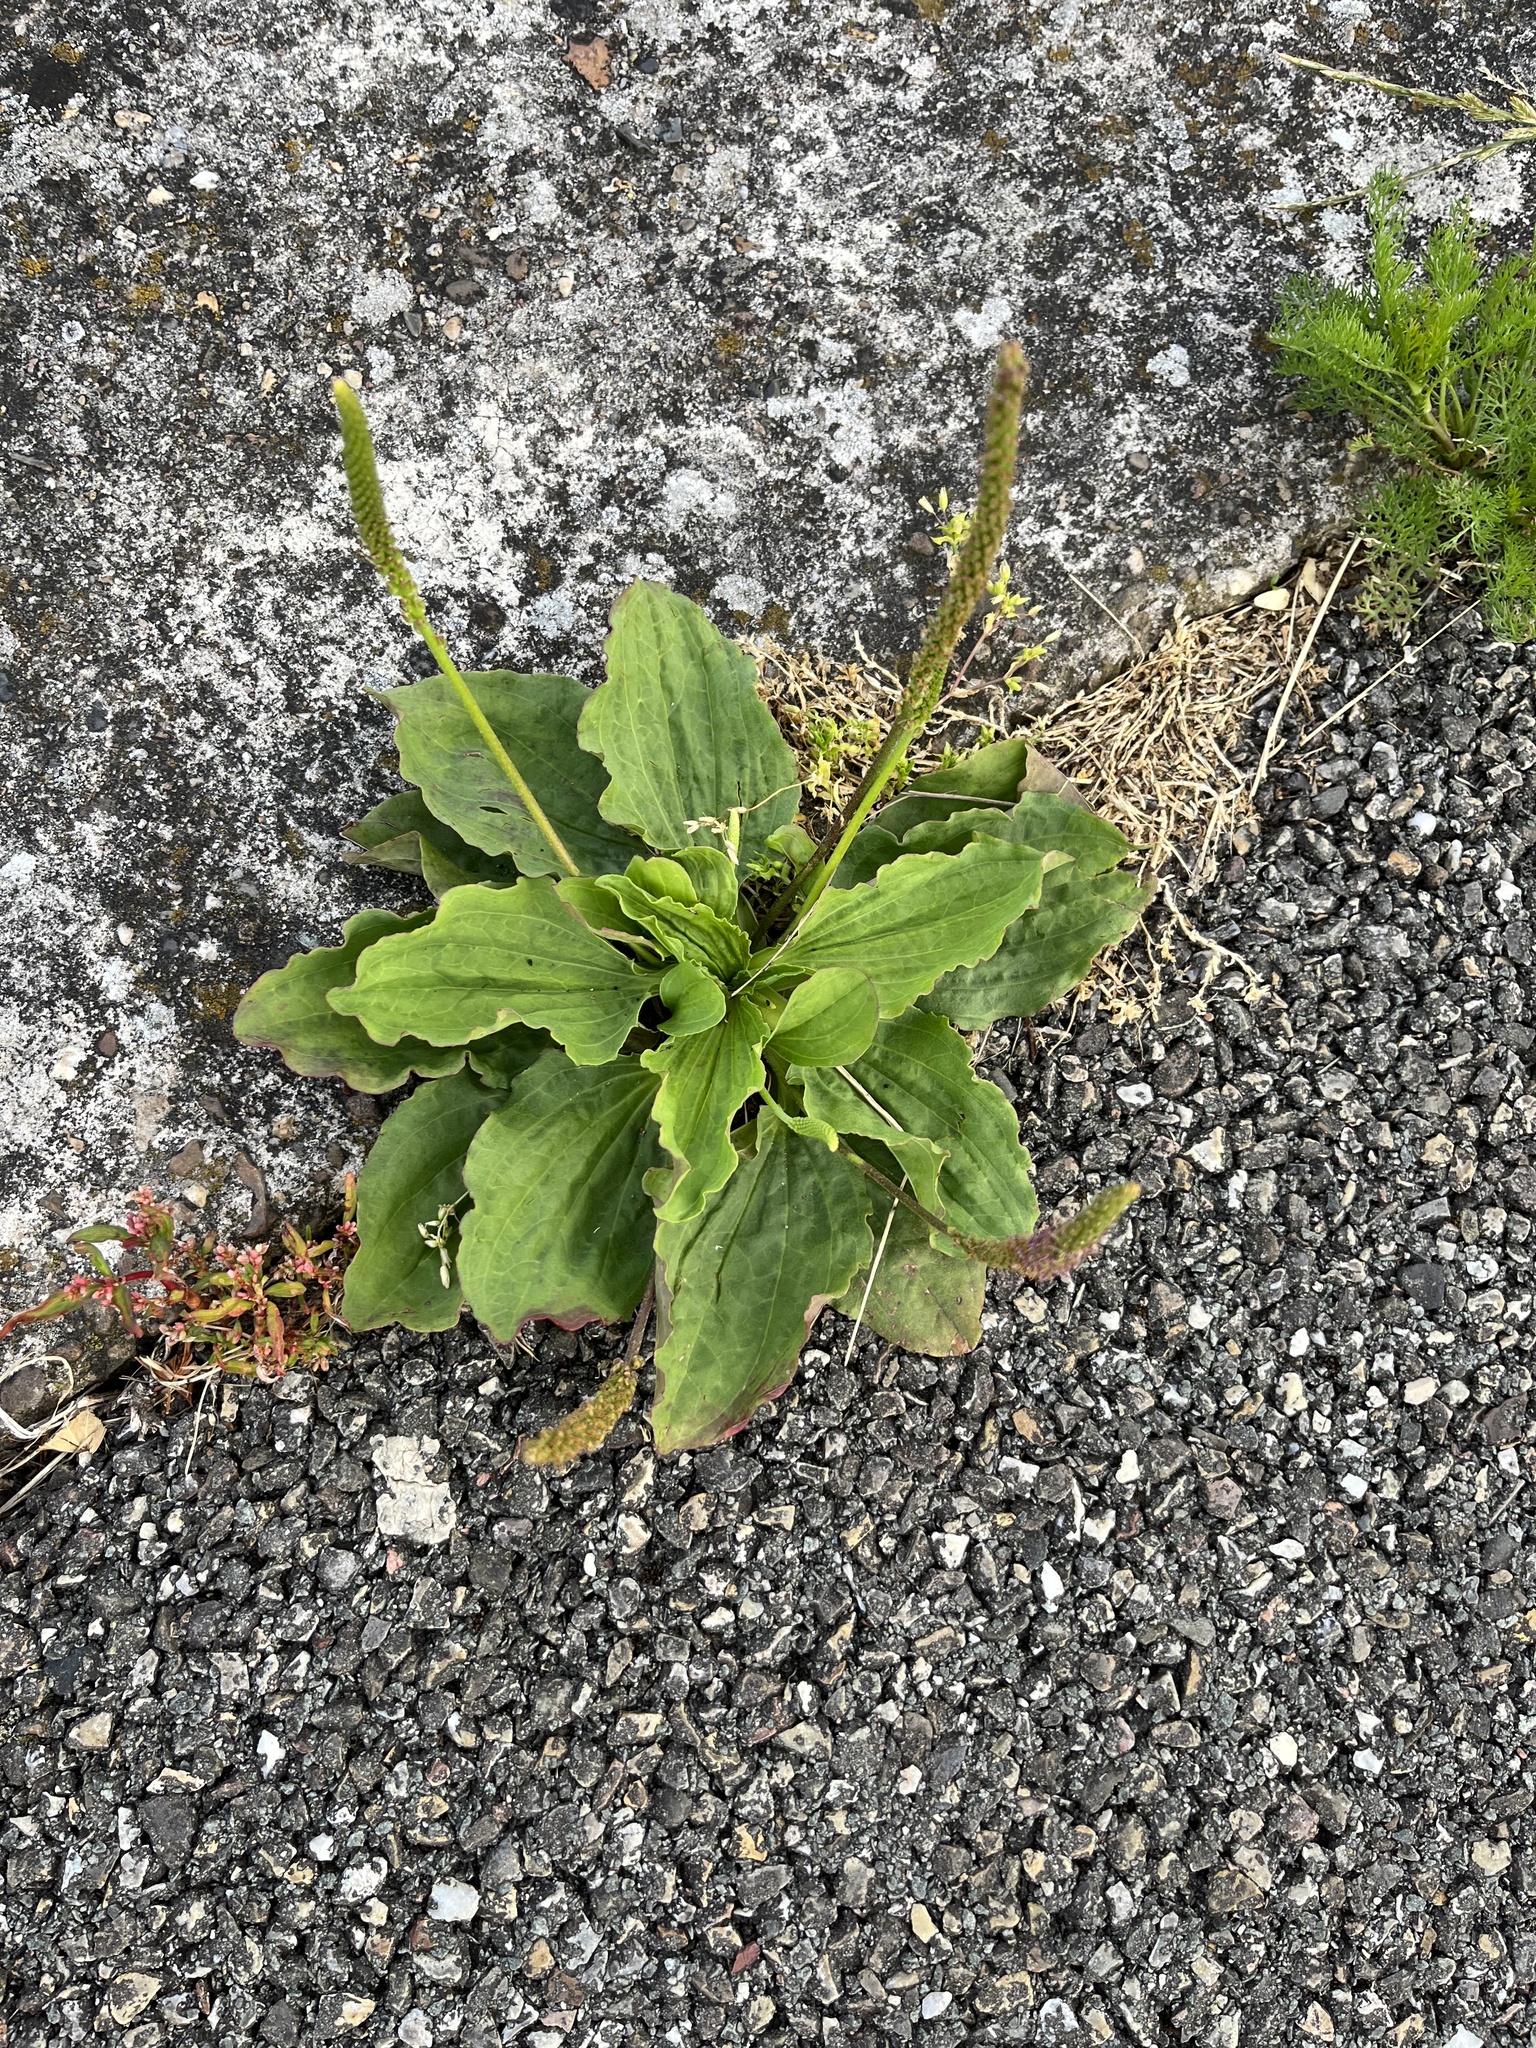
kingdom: Plantae
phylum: Tracheophyta
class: Magnoliopsida
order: Lamiales
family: Plantaginaceae
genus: Plantago
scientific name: Plantago major
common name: Common plantain
